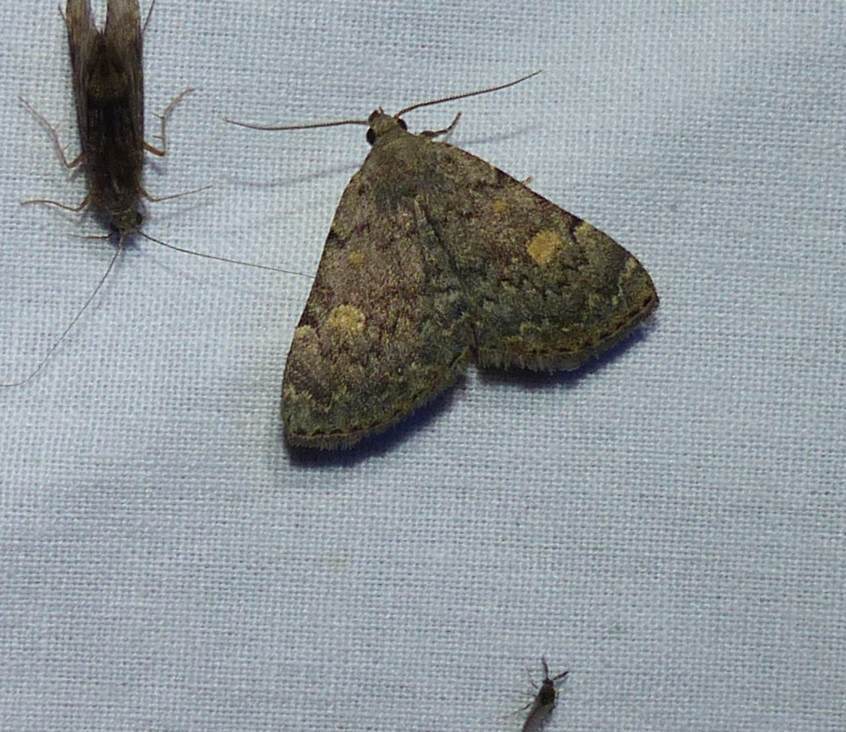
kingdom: Animalia
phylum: Arthropoda
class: Insecta
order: Lepidoptera
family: Erebidae
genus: Idia
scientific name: Idia aemula
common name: Common idia moth
